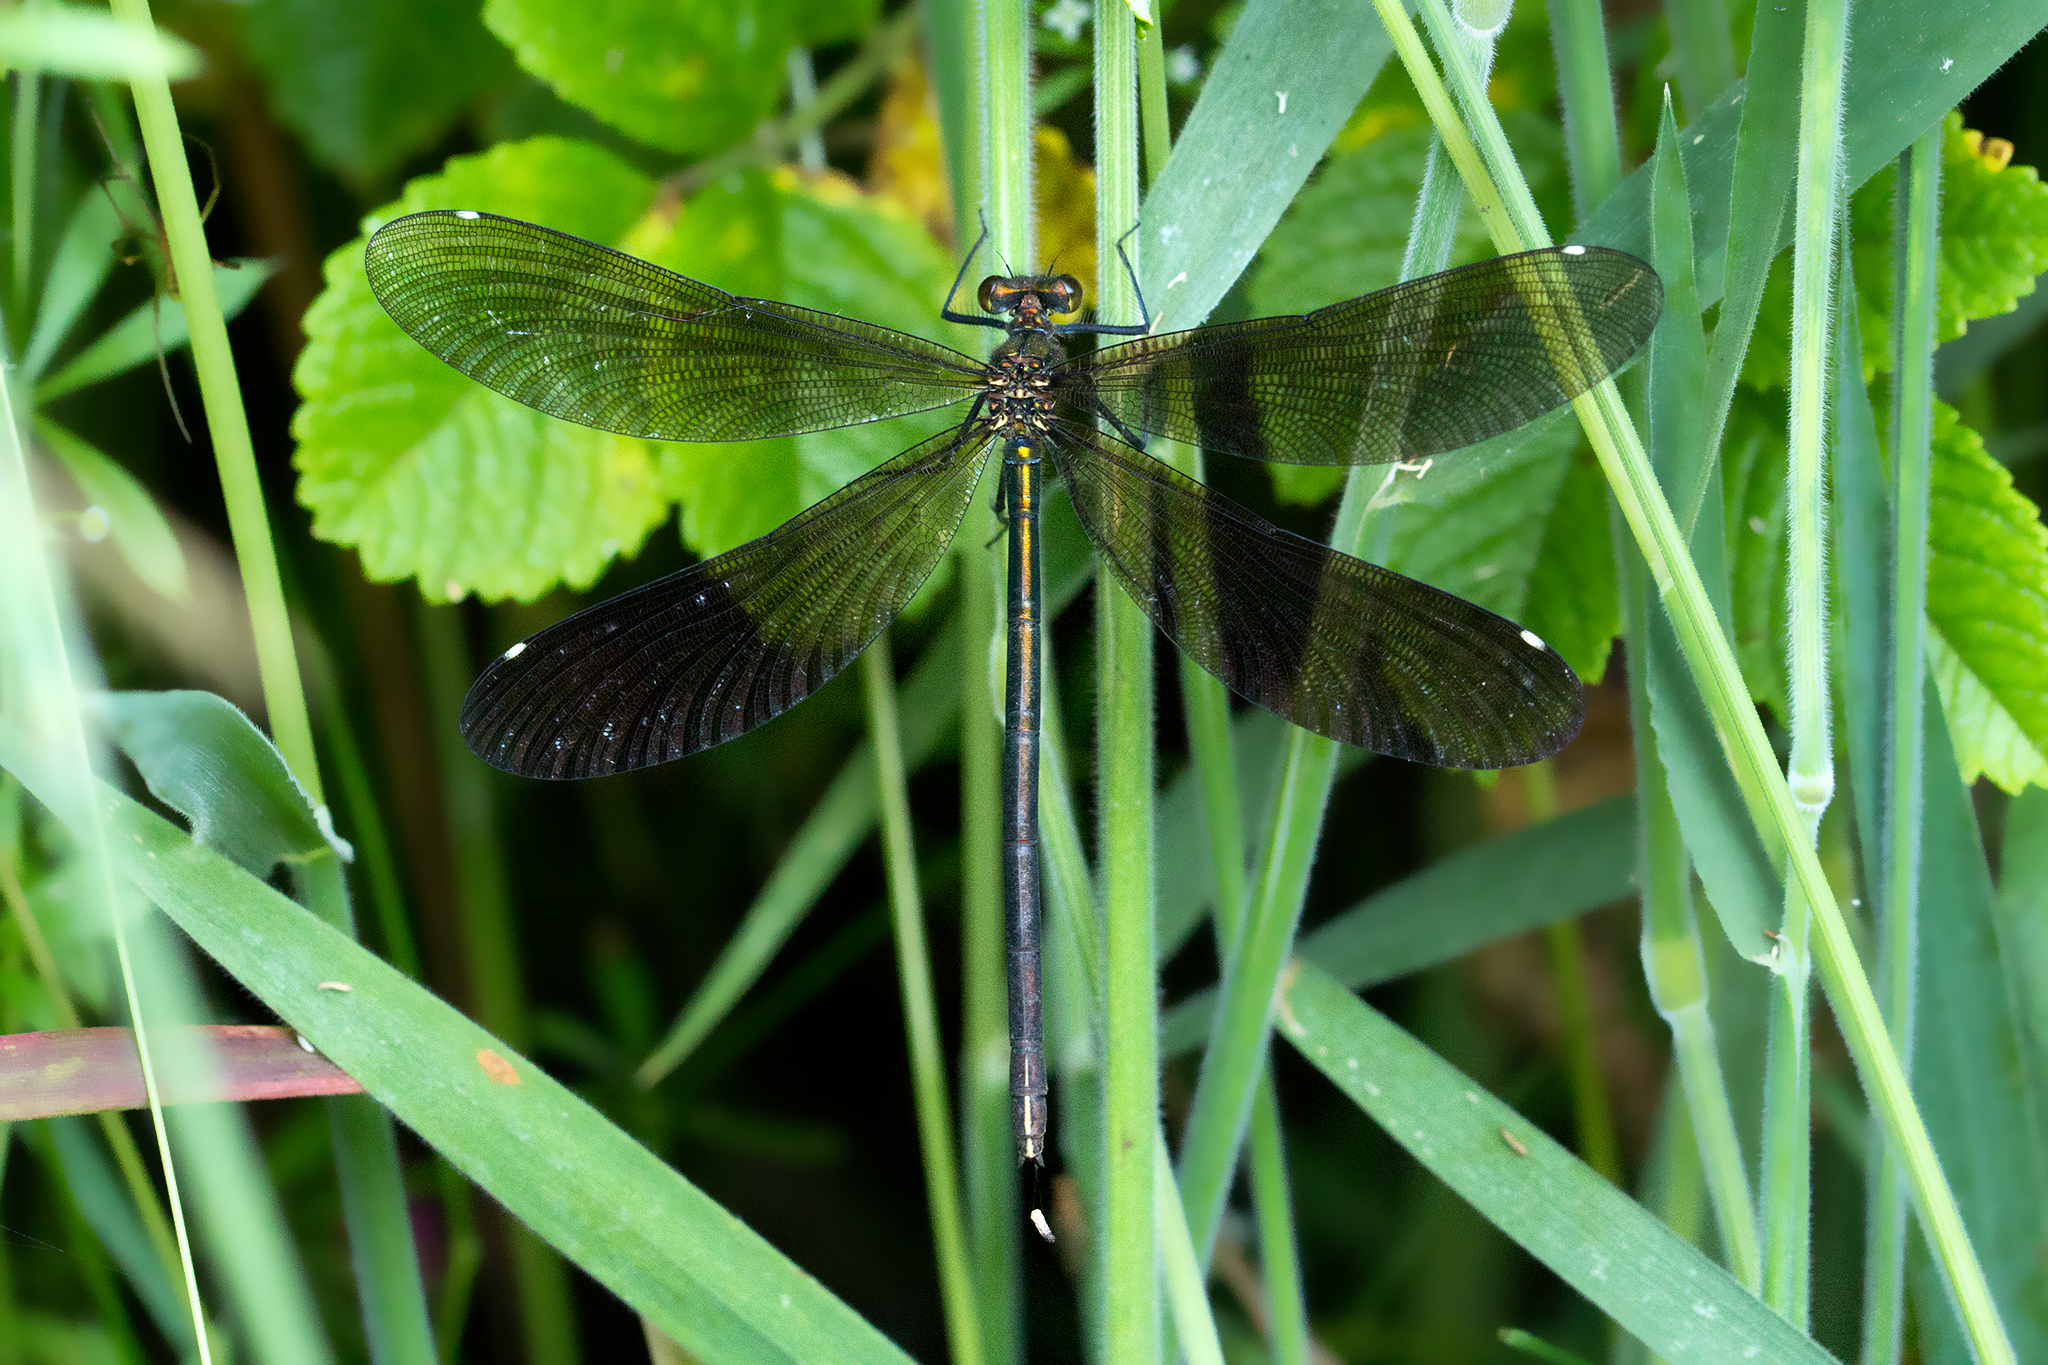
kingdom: Animalia
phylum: Arthropoda
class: Insecta
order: Odonata
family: Calopterygidae
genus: Calopteryx
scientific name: Calopteryx virgo
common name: Beautiful demoiselle
